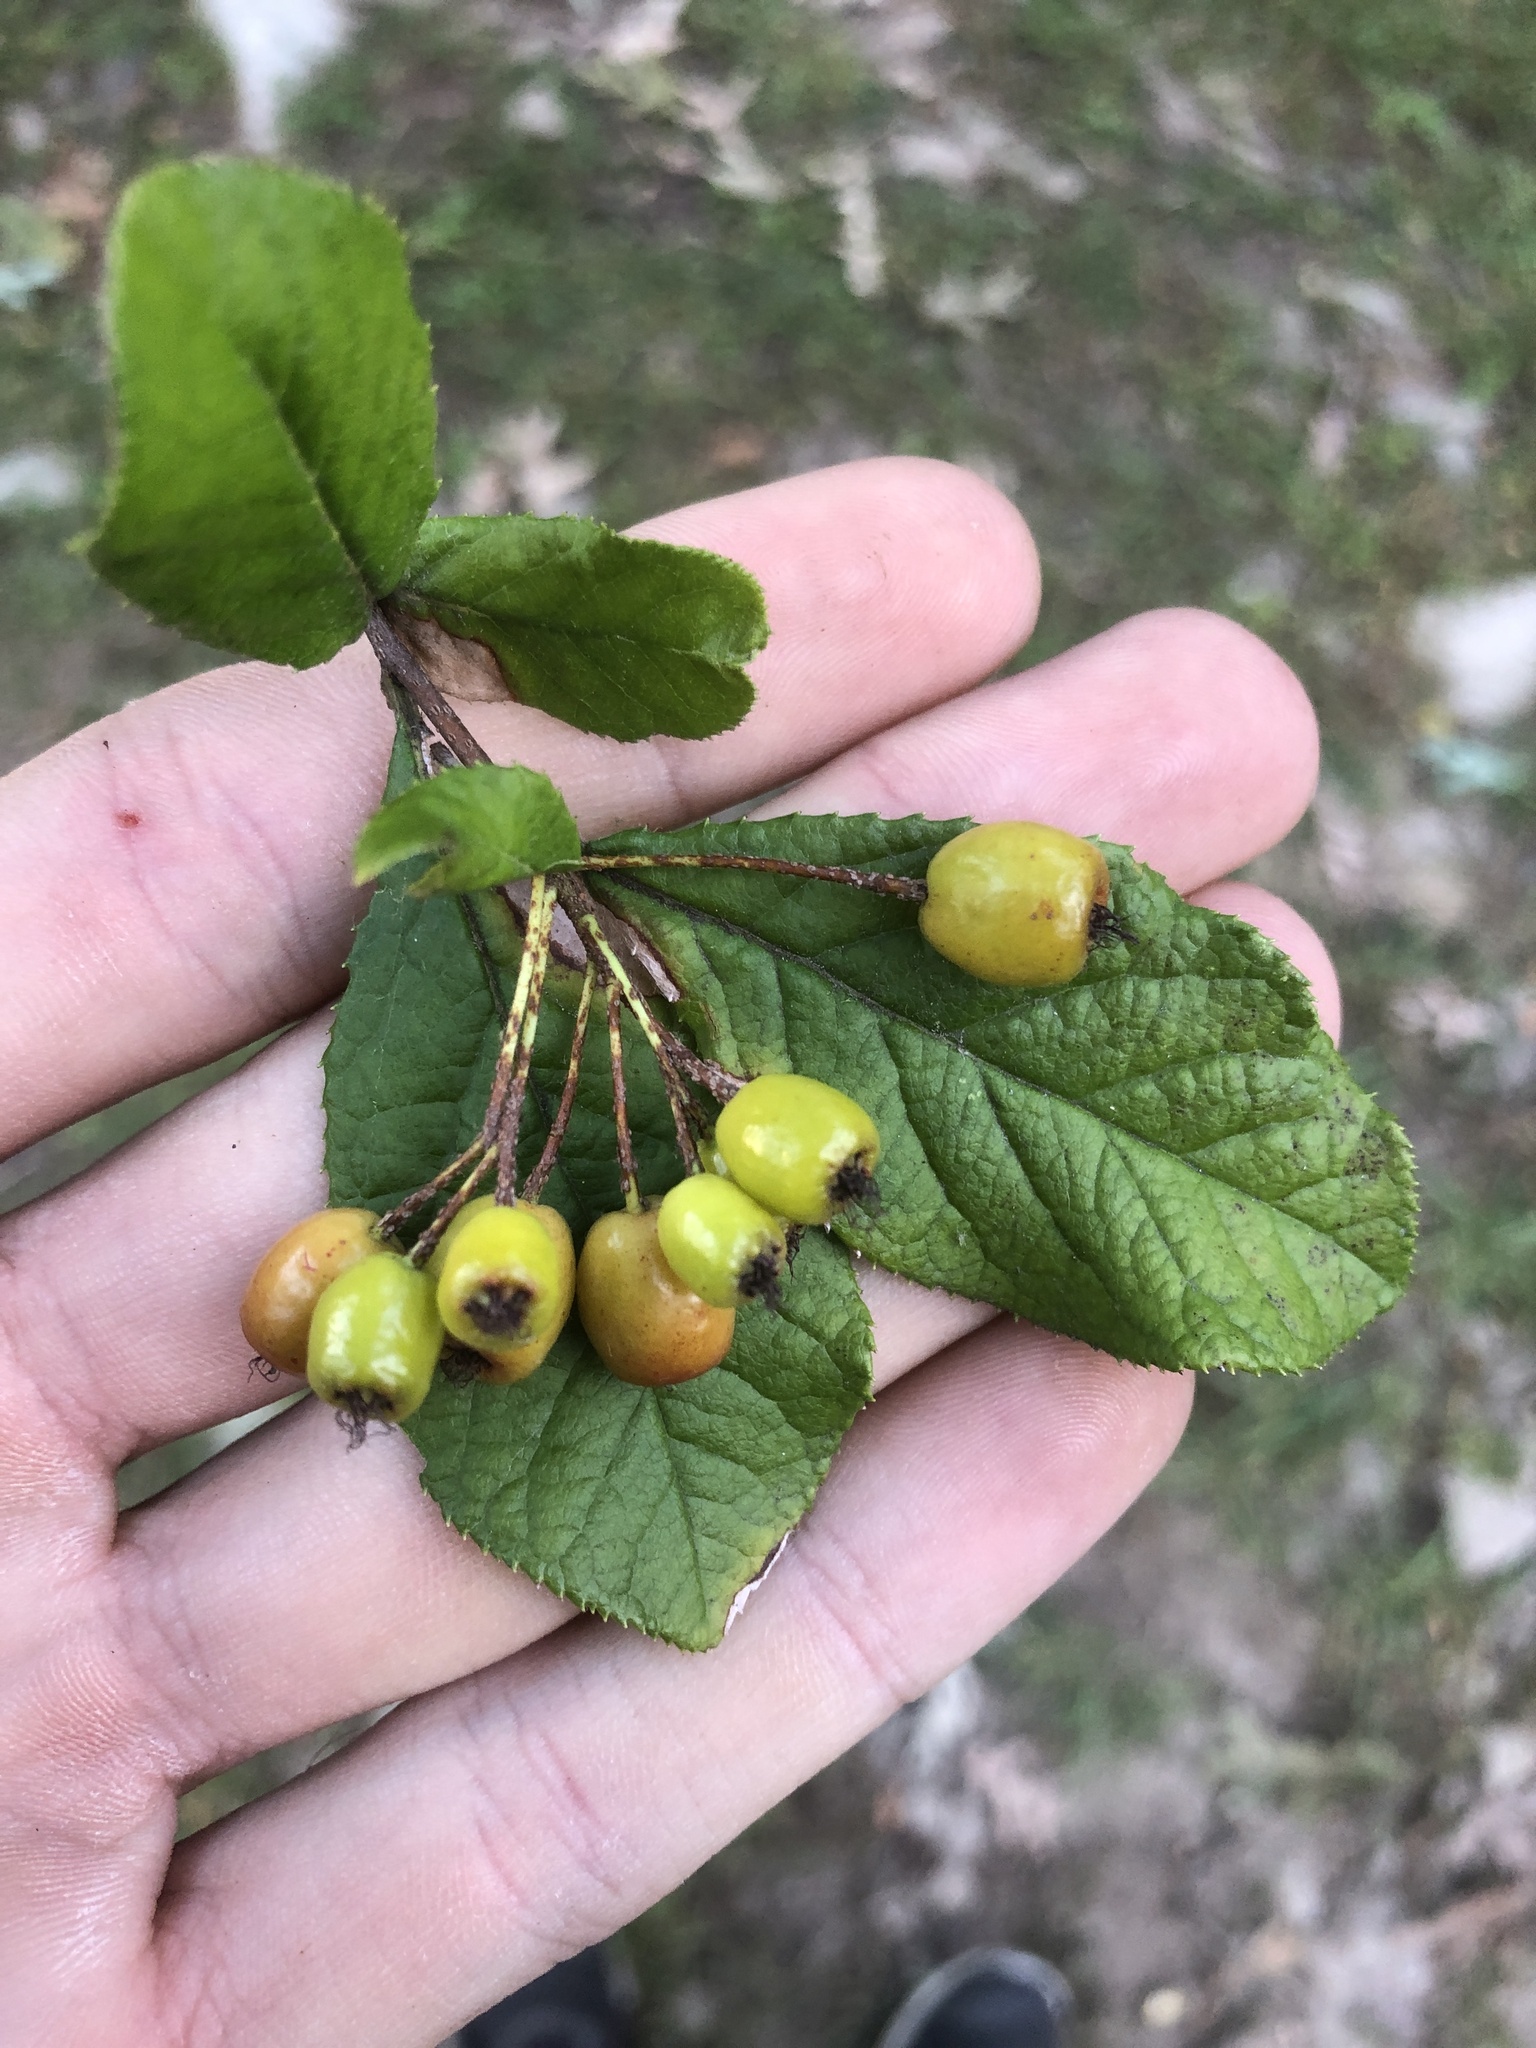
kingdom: Plantae
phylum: Tracheophyta
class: Magnoliopsida
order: Rosales
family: Rosaceae
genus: Pourthiaea
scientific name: Pourthiaea villosa
